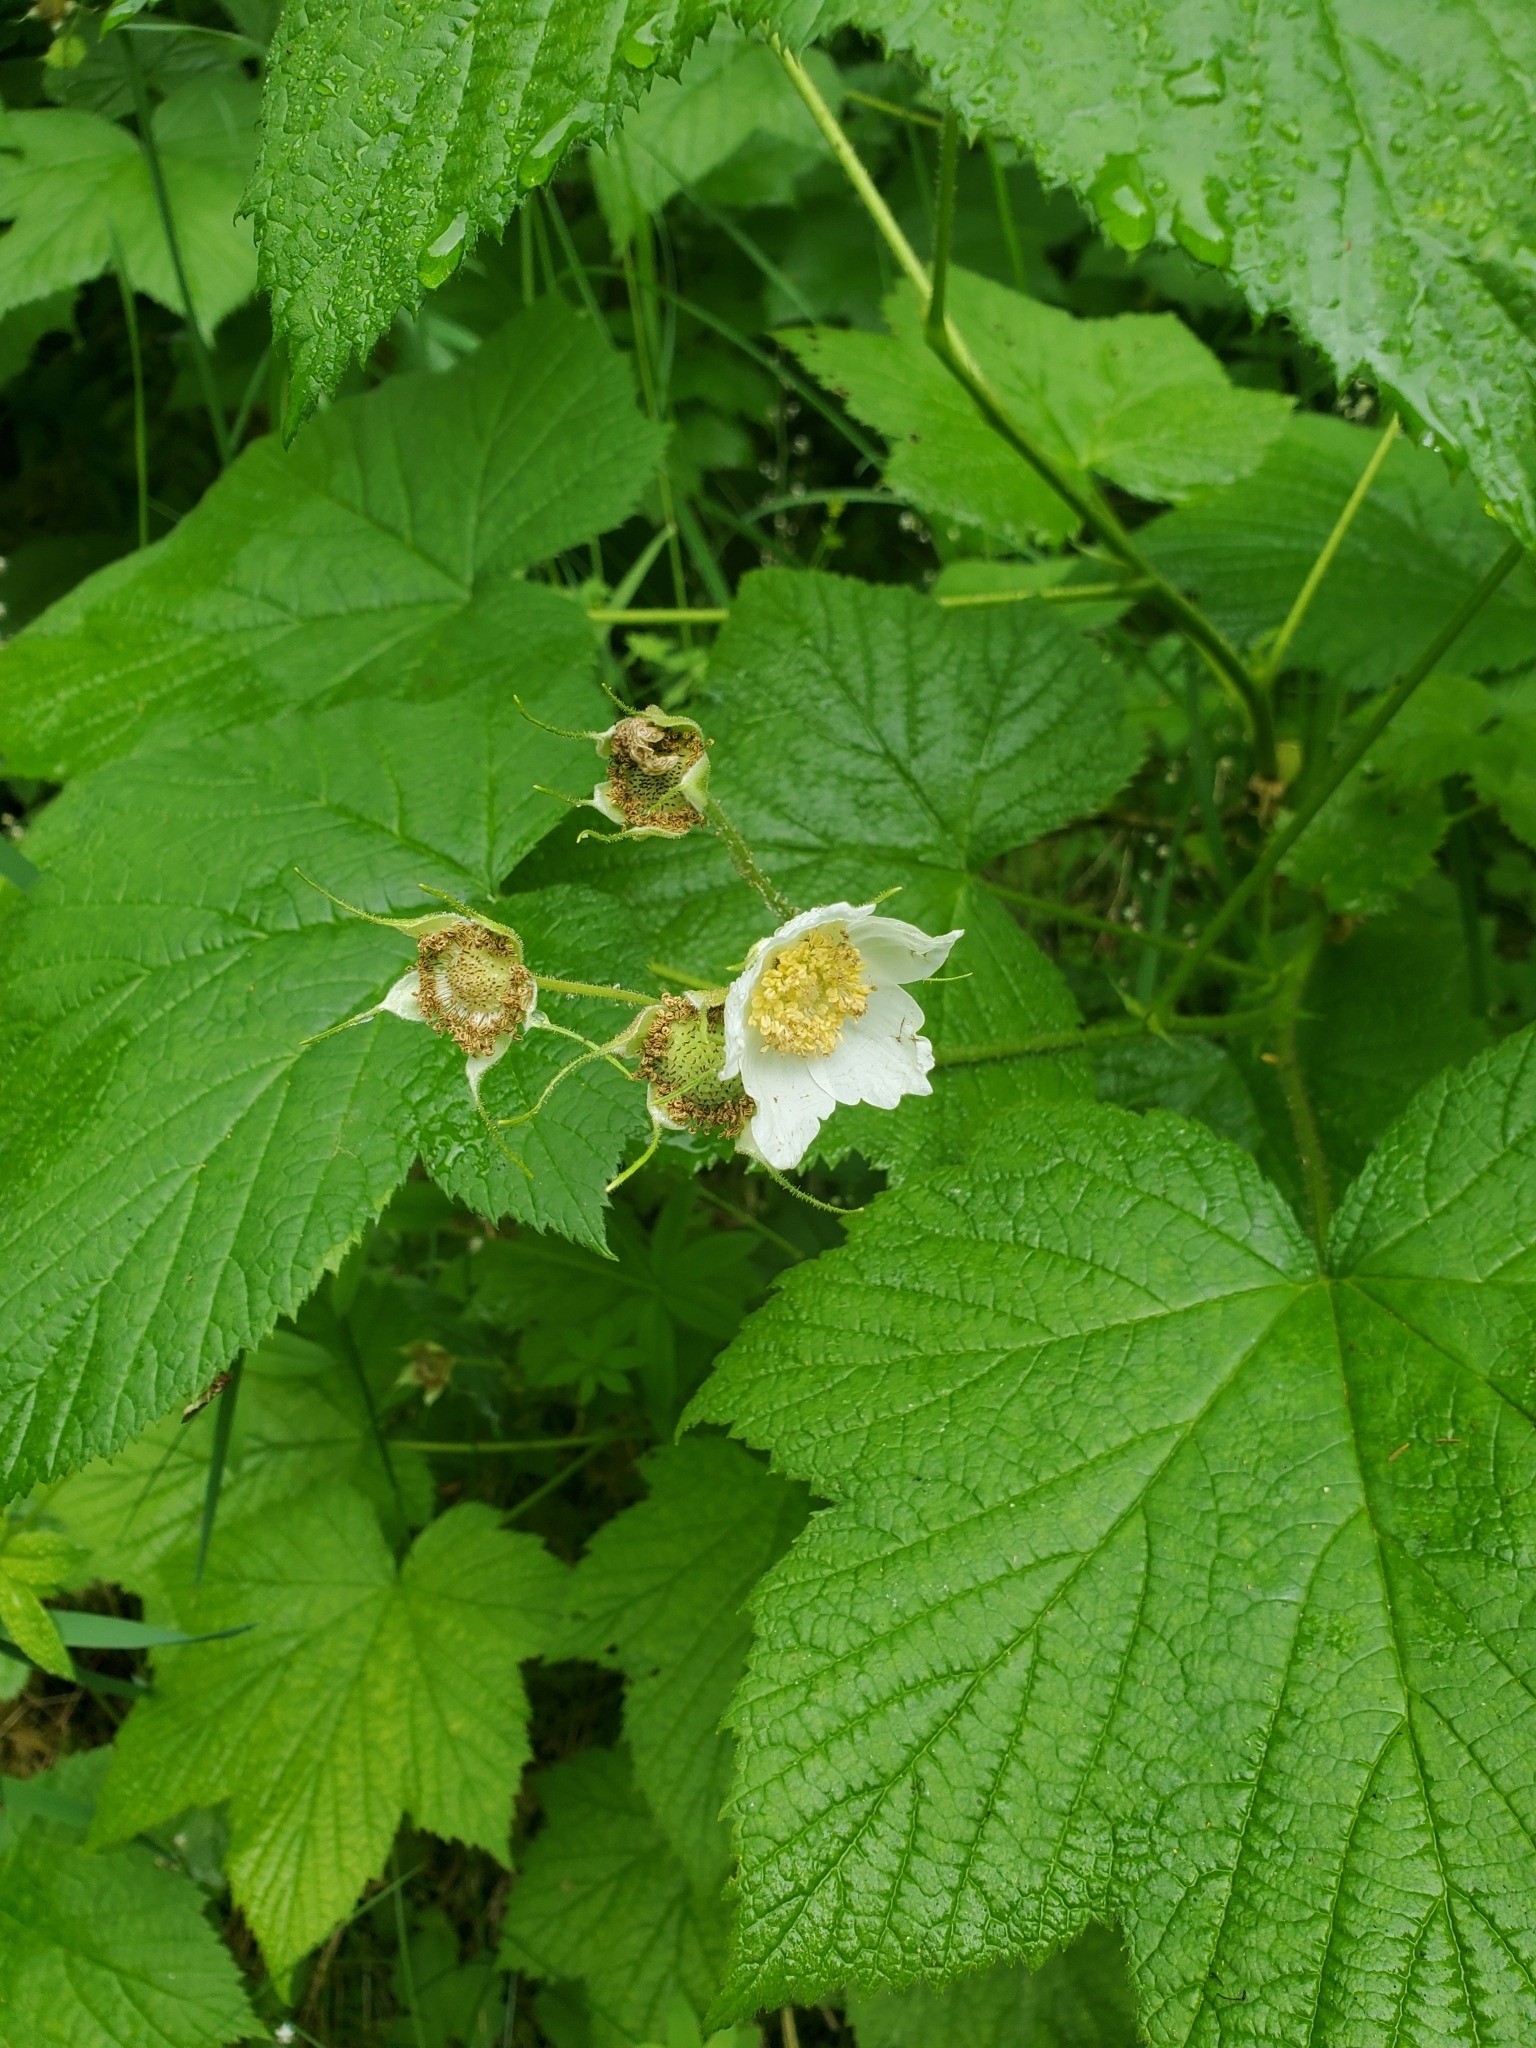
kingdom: Plantae
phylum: Tracheophyta
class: Magnoliopsida
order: Rosales
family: Rosaceae
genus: Rubus
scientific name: Rubus parviflorus
